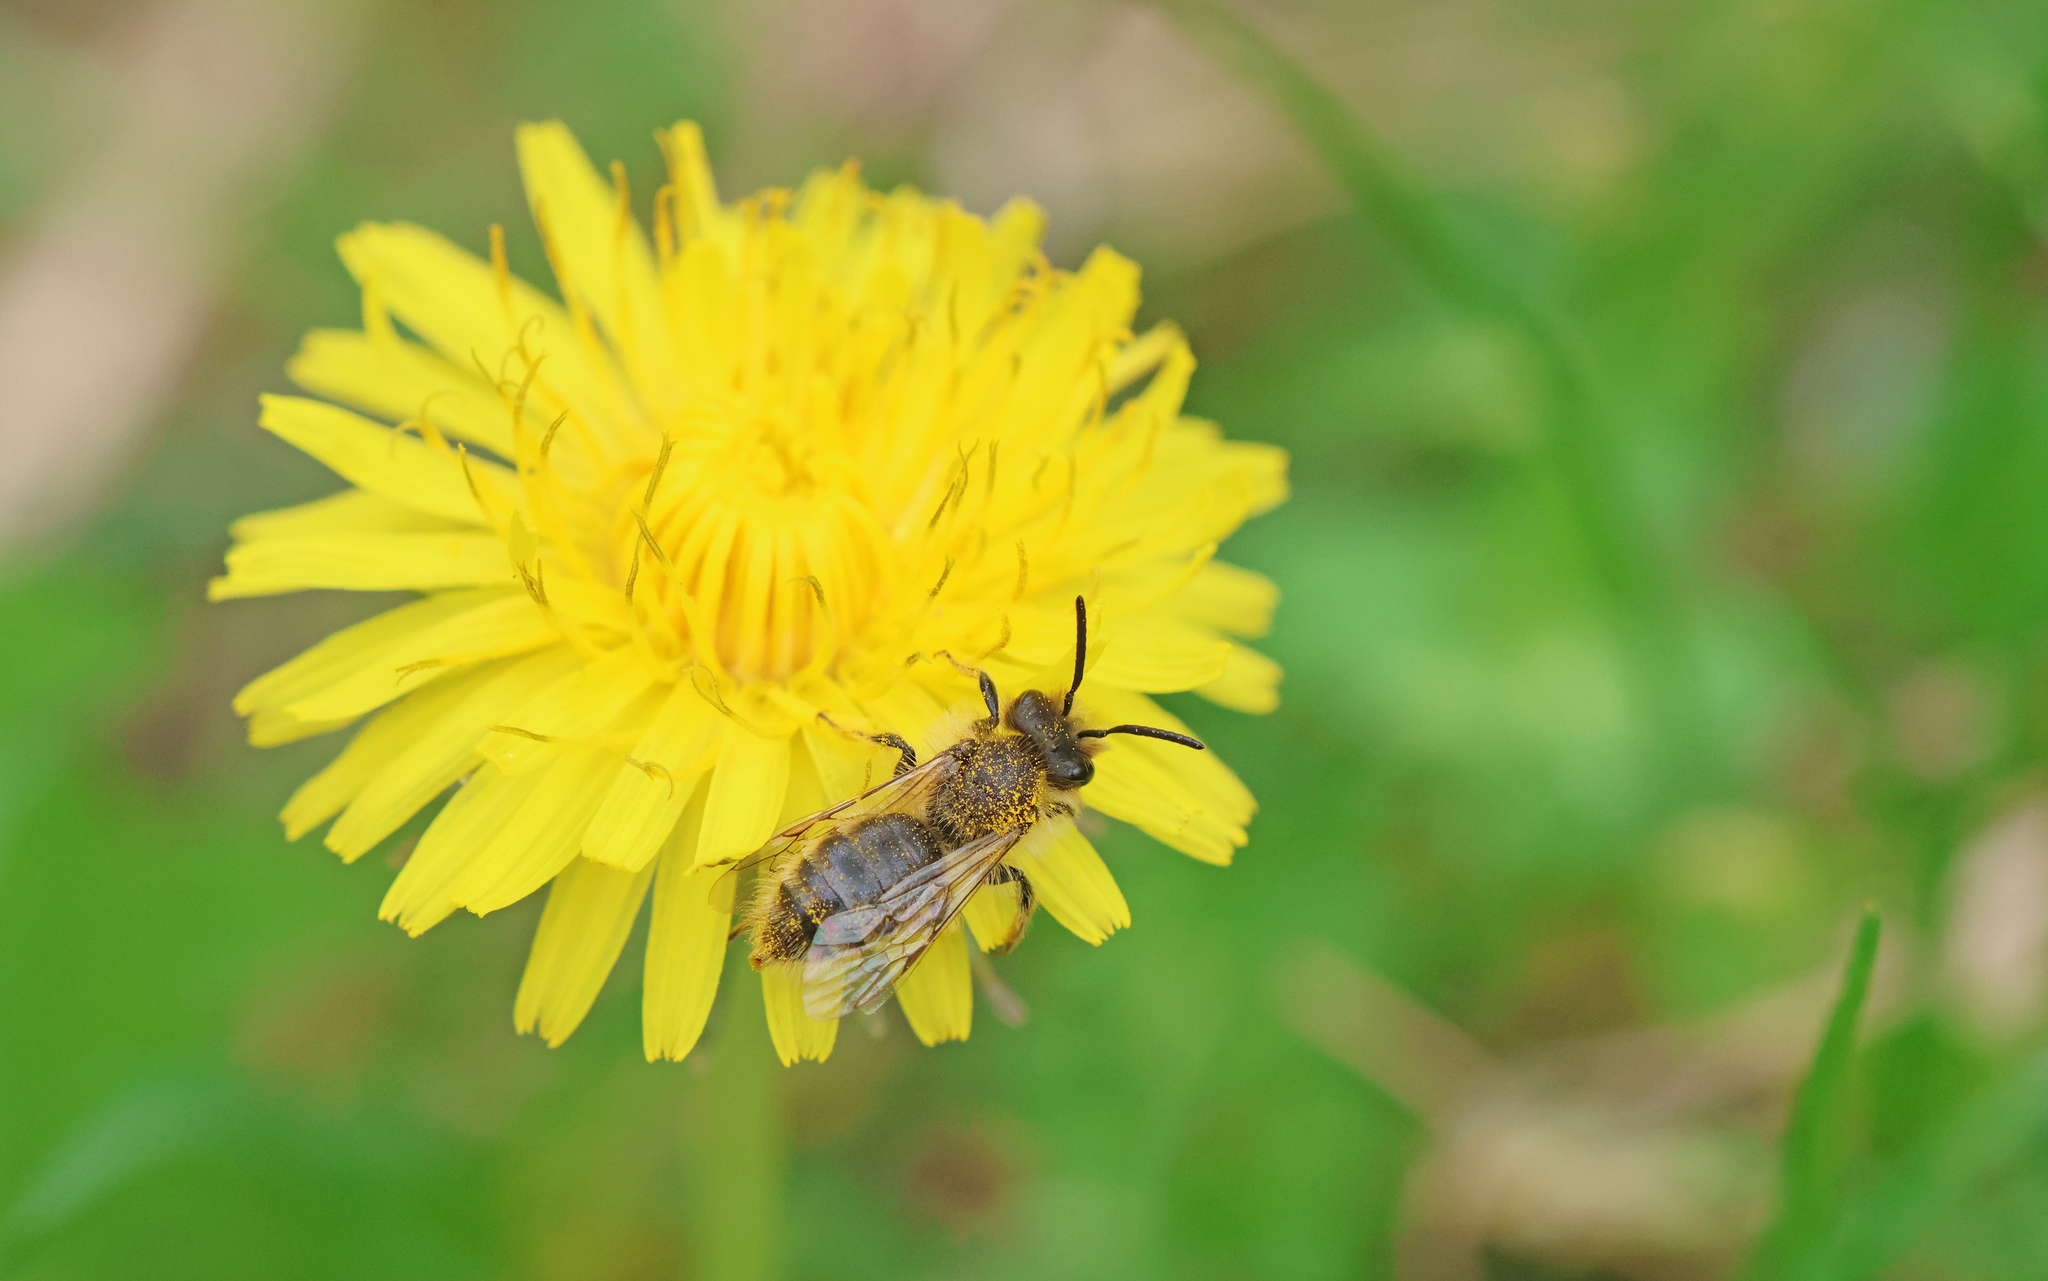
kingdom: Animalia
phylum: Arthropoda
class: Insecta
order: Hymenoptera
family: Andrenidae
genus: Andrena
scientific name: Andrena taraxaci
